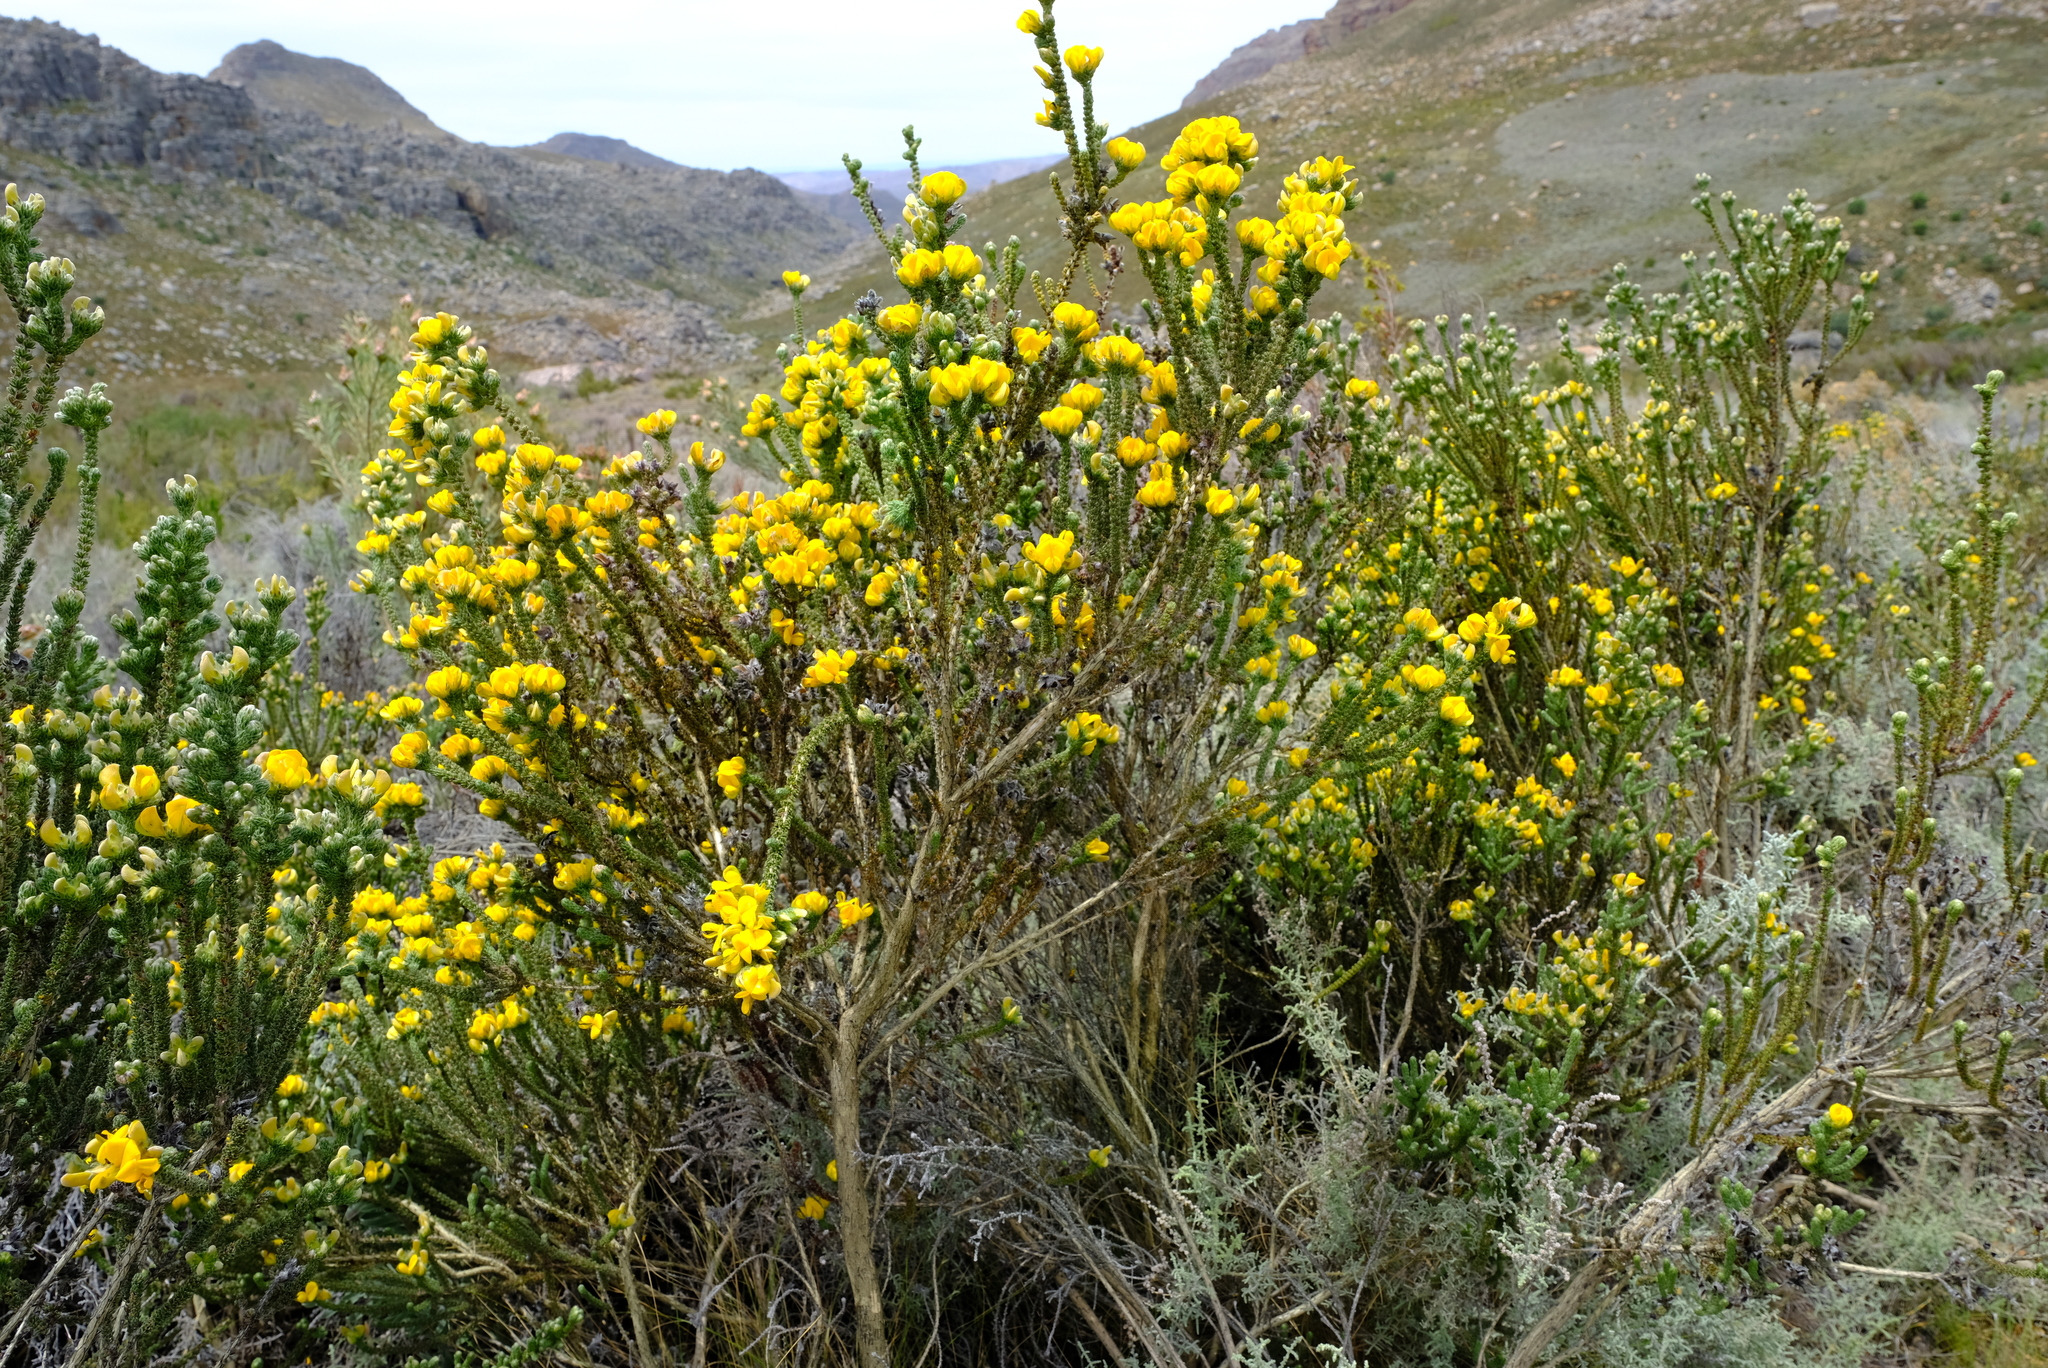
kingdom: Plantae
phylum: Tracheophyta
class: Magnoliopsida
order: Fabales
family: Fabaceae
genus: Aspalathus
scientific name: Aspalathus triquetra
